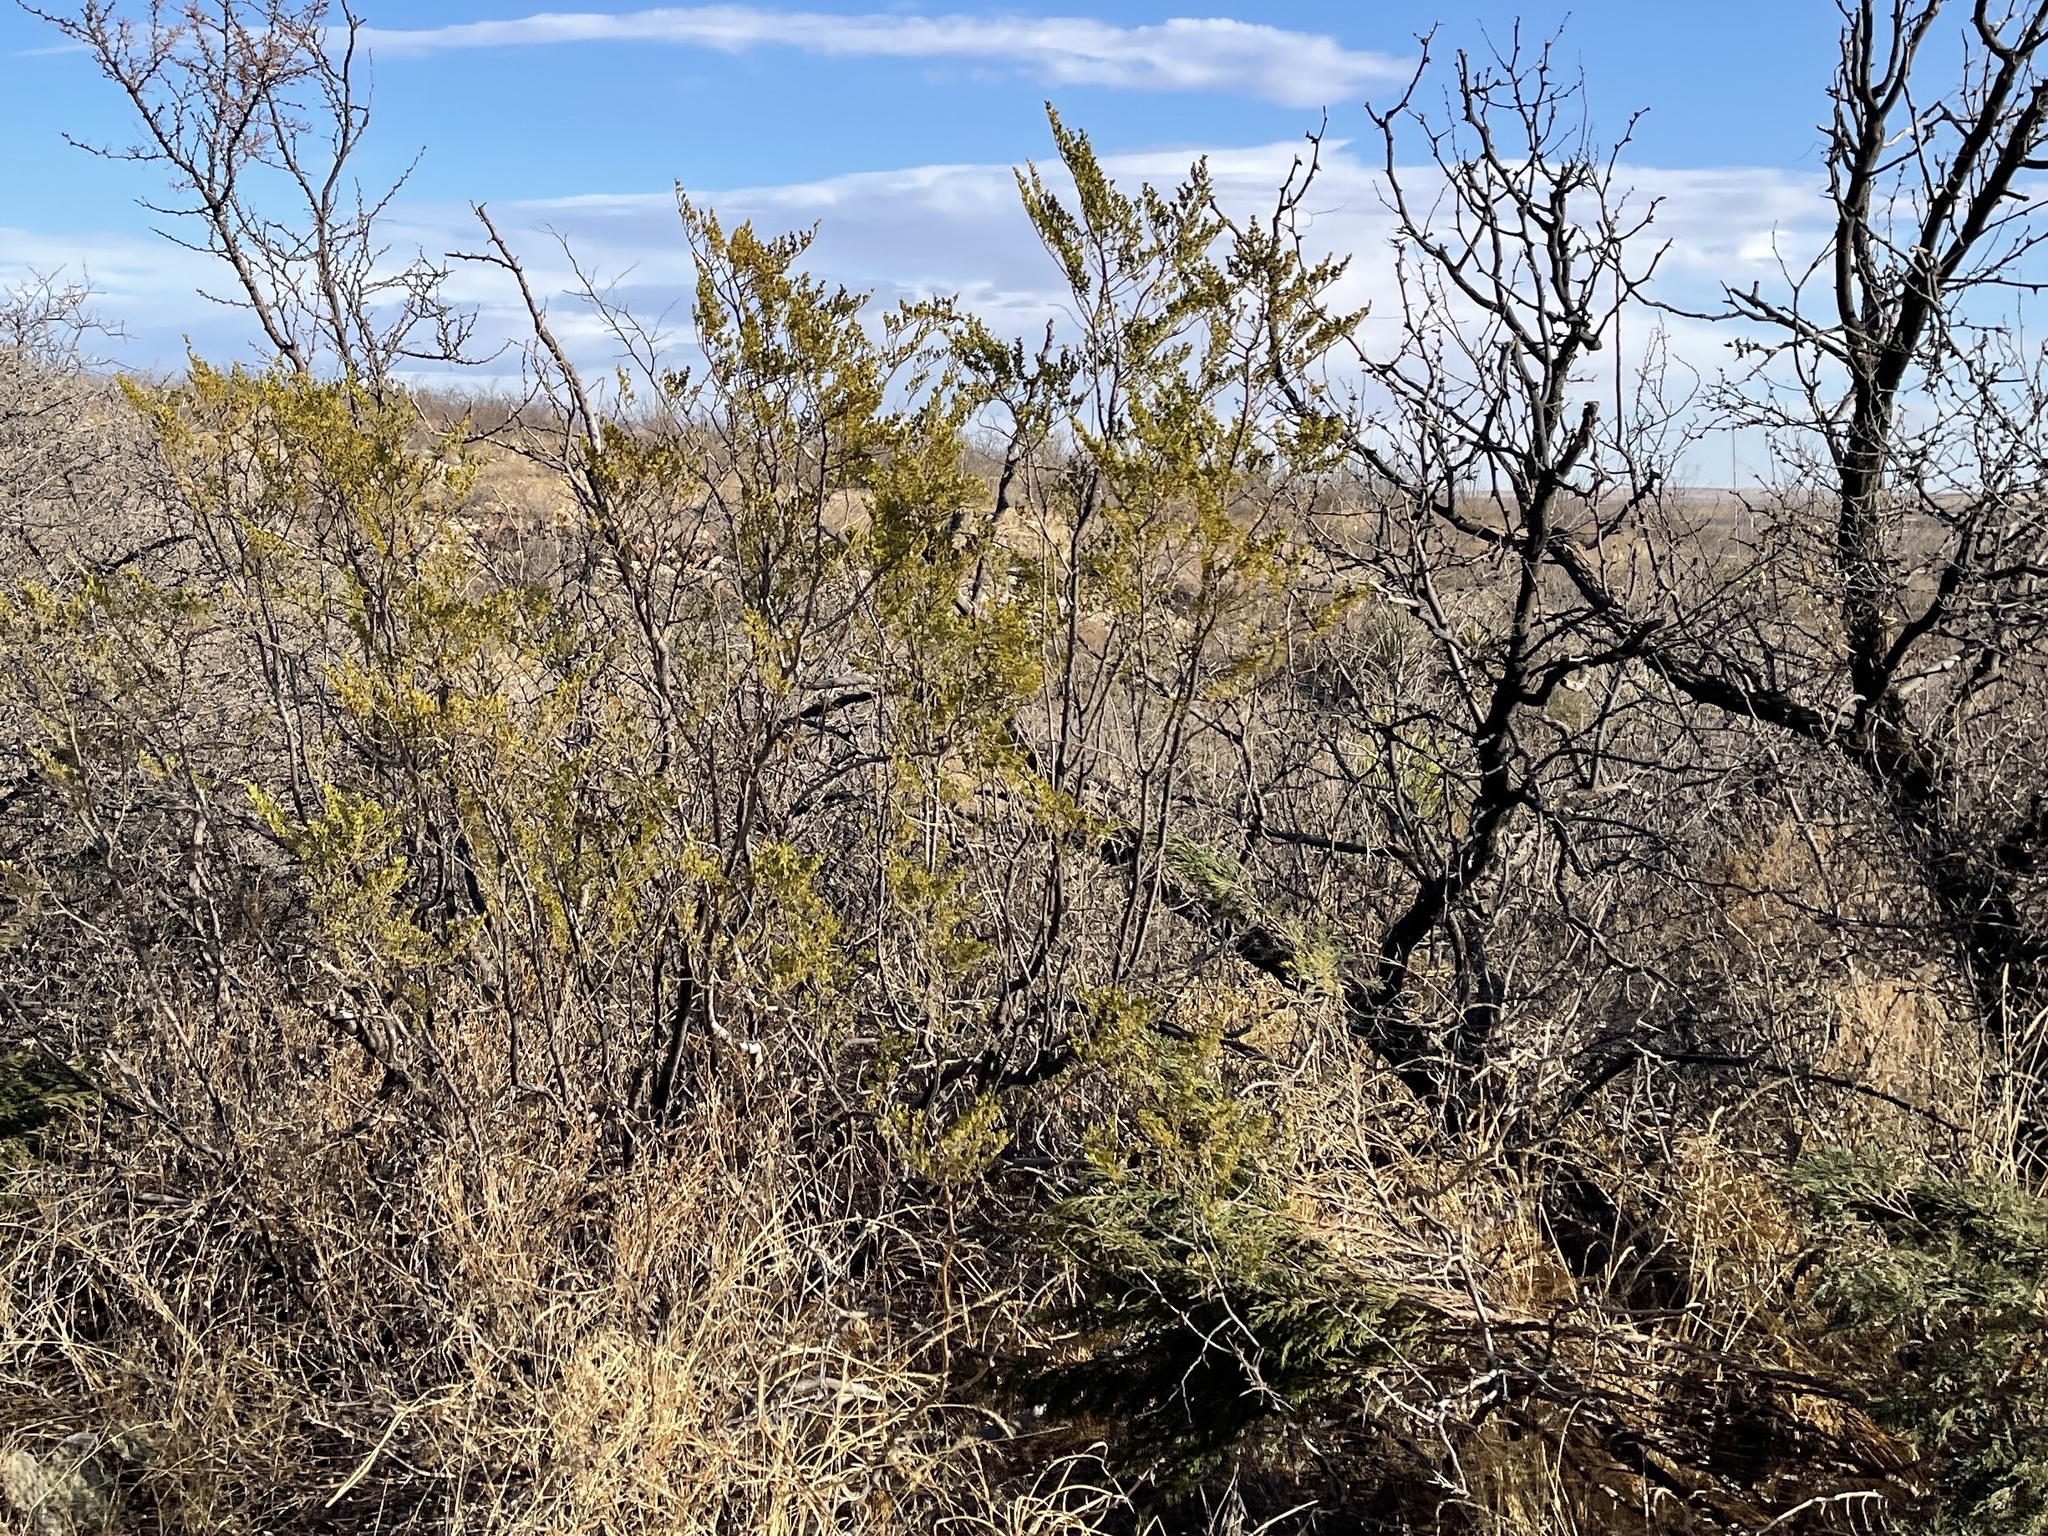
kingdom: Plantae
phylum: Tracheophyta
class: Magnoliopsida
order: Zygophyllales
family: Zygophyllaceae
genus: Larrea
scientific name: Larrea tridentata
